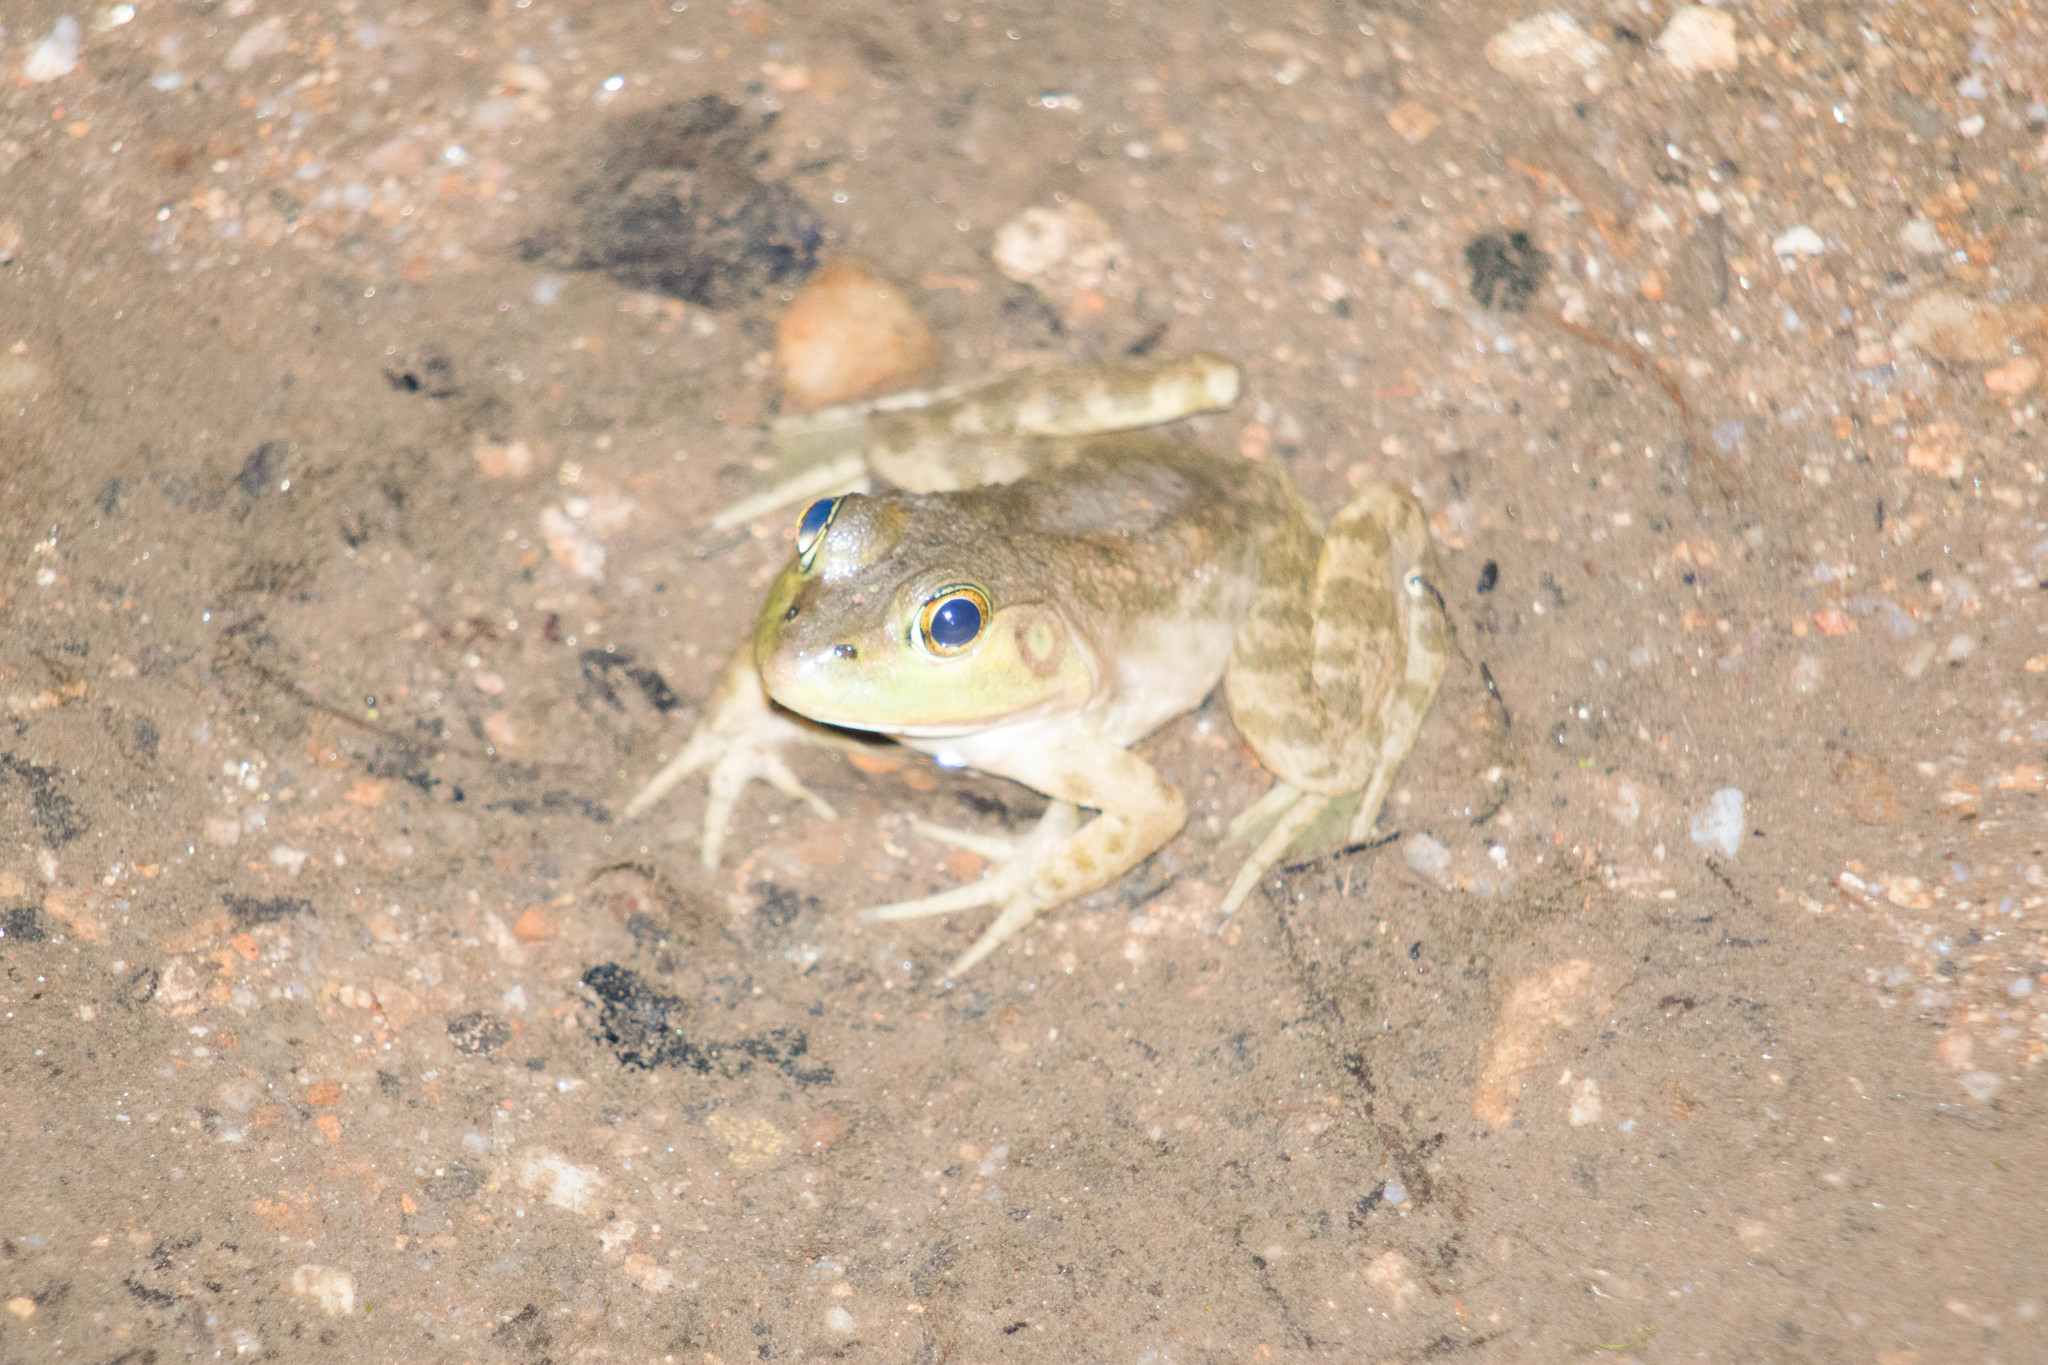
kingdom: Animalia
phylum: Chordata
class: Amphibia
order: Anura
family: Ranidae
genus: Lithobates
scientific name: Lithobates catesbeianus
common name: American bullfrog
